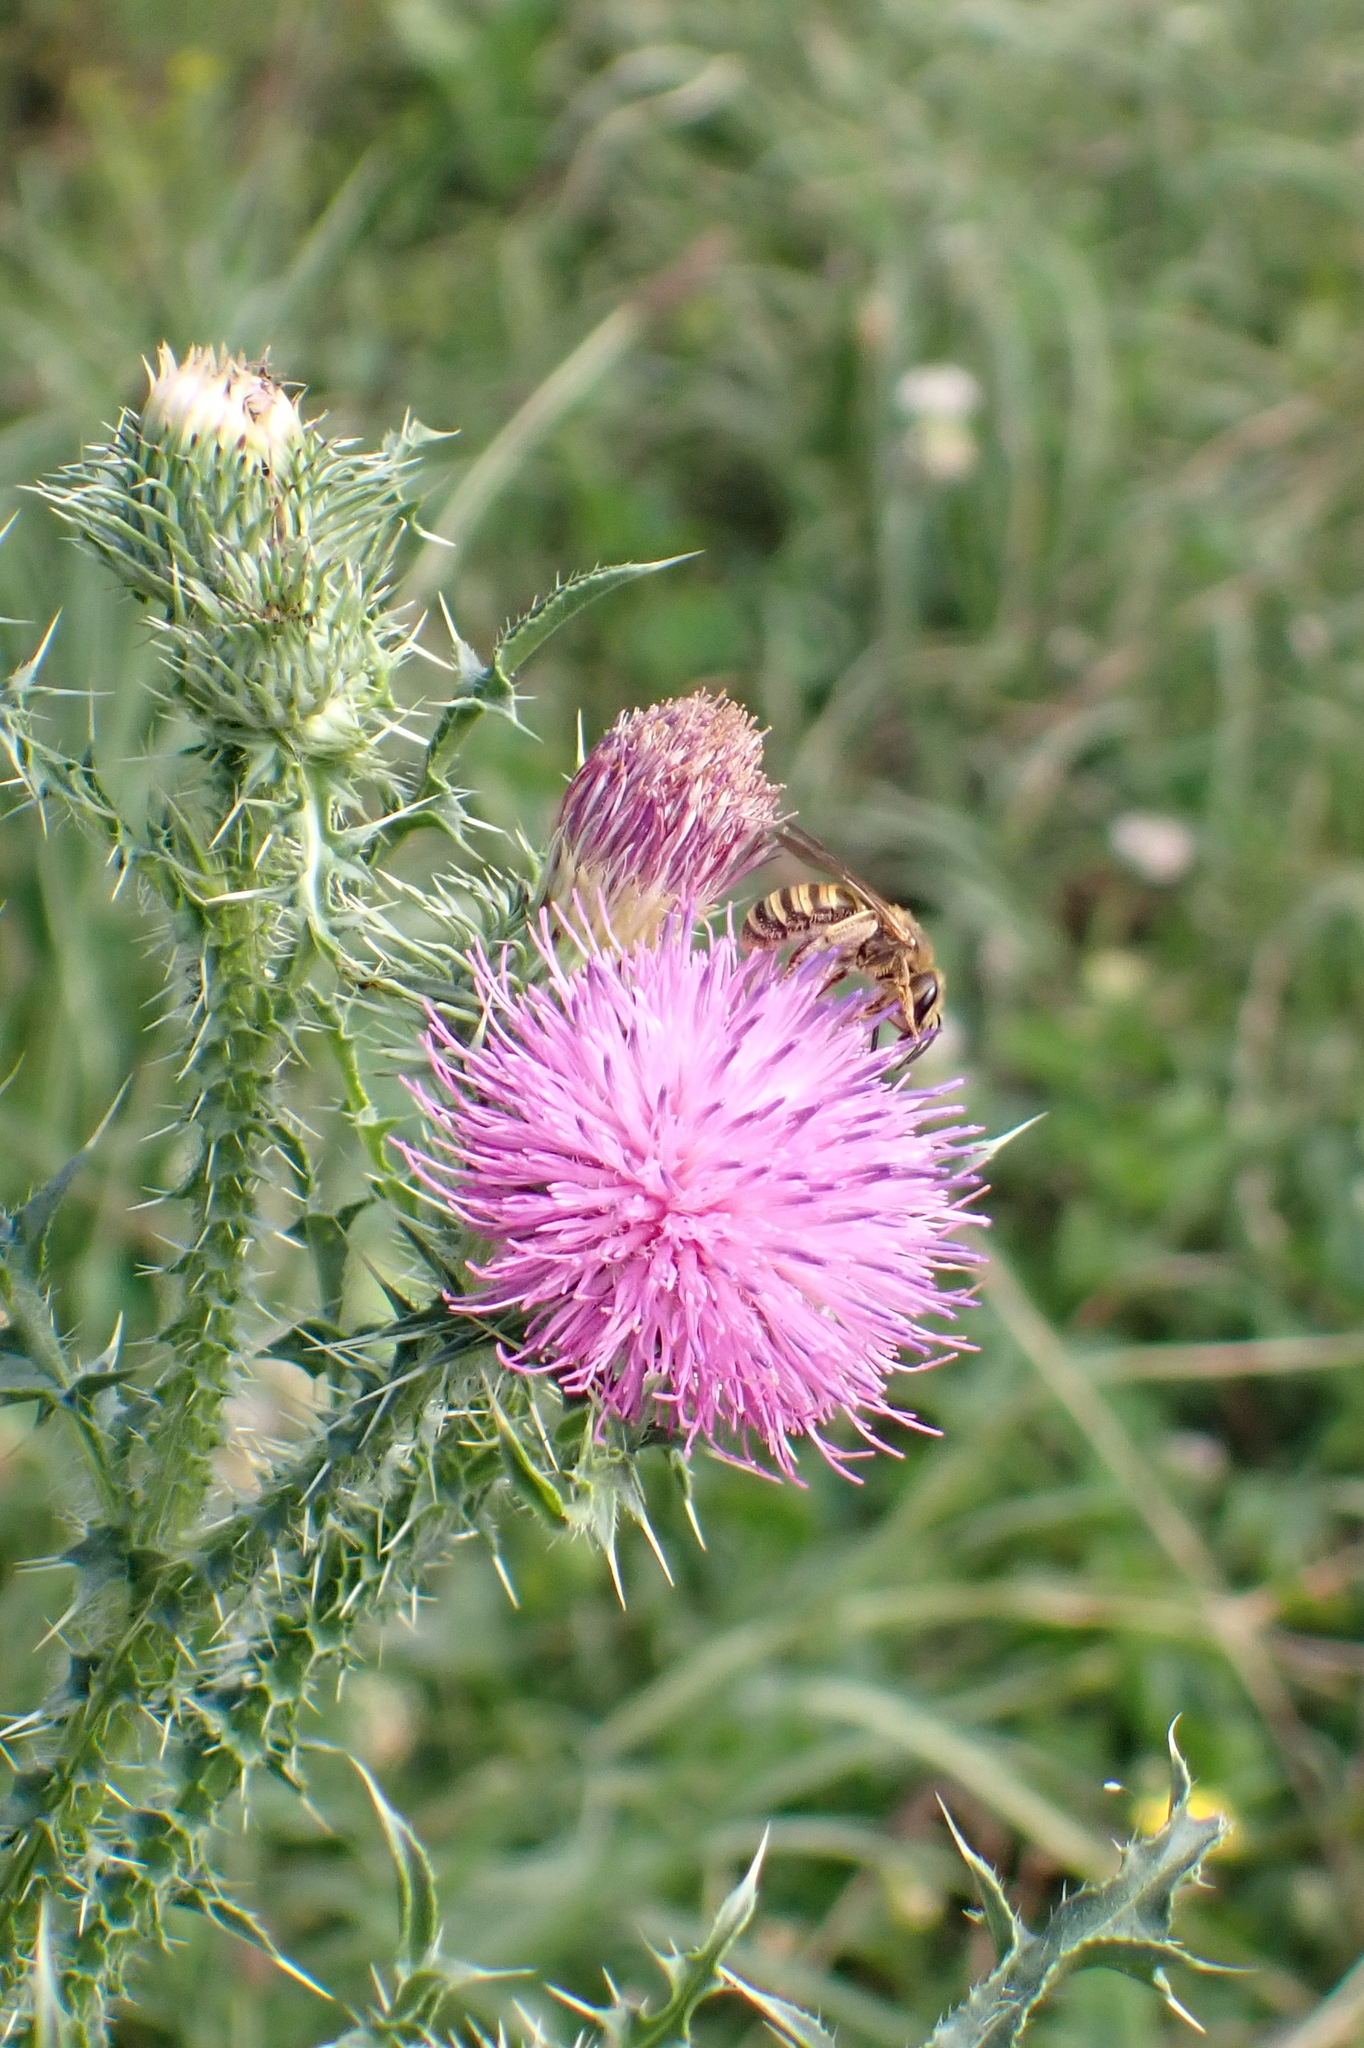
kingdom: Animalia
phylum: Arthropoda
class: Insecta
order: Hymenoptera
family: Halictidae
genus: Halictus
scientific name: Halictus scabiosae
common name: Great banded furrow bee
